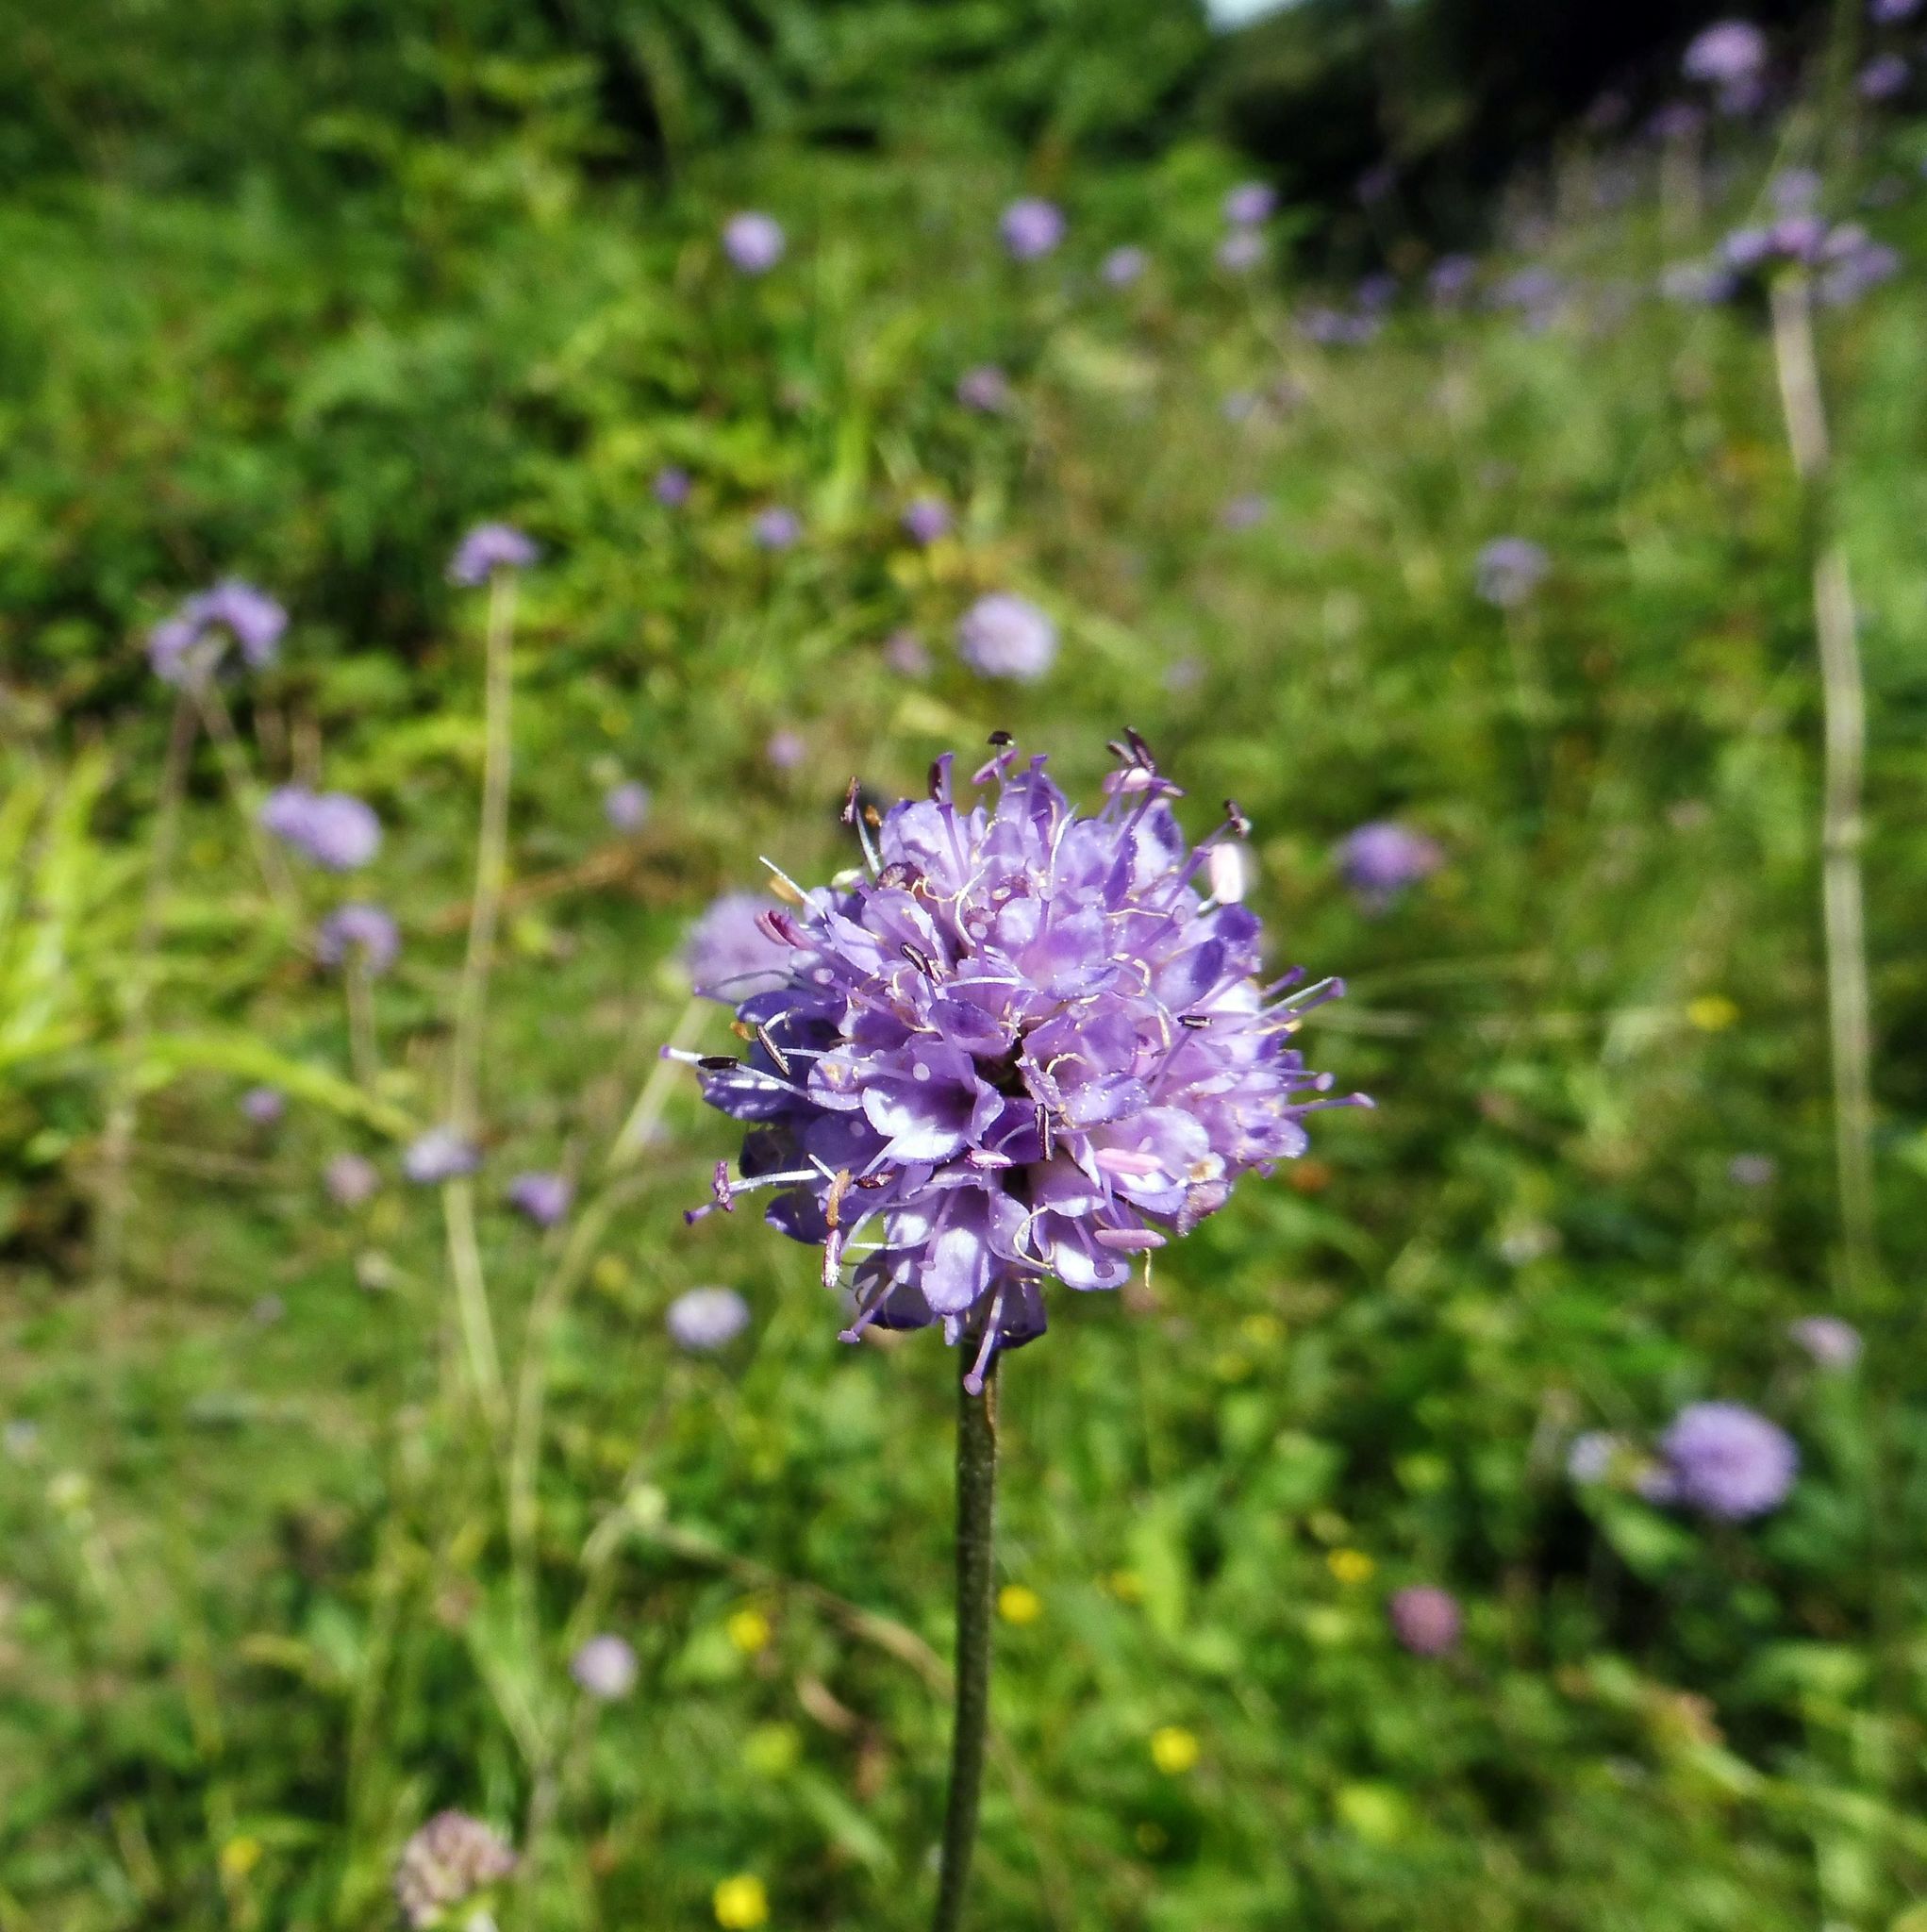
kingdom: Plantae
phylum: Tracheophyta
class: Magnoliopsida
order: Dipsacales
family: Caprifoliaceae
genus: Succisa
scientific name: Succisa pratensis
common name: Devil's-bit
